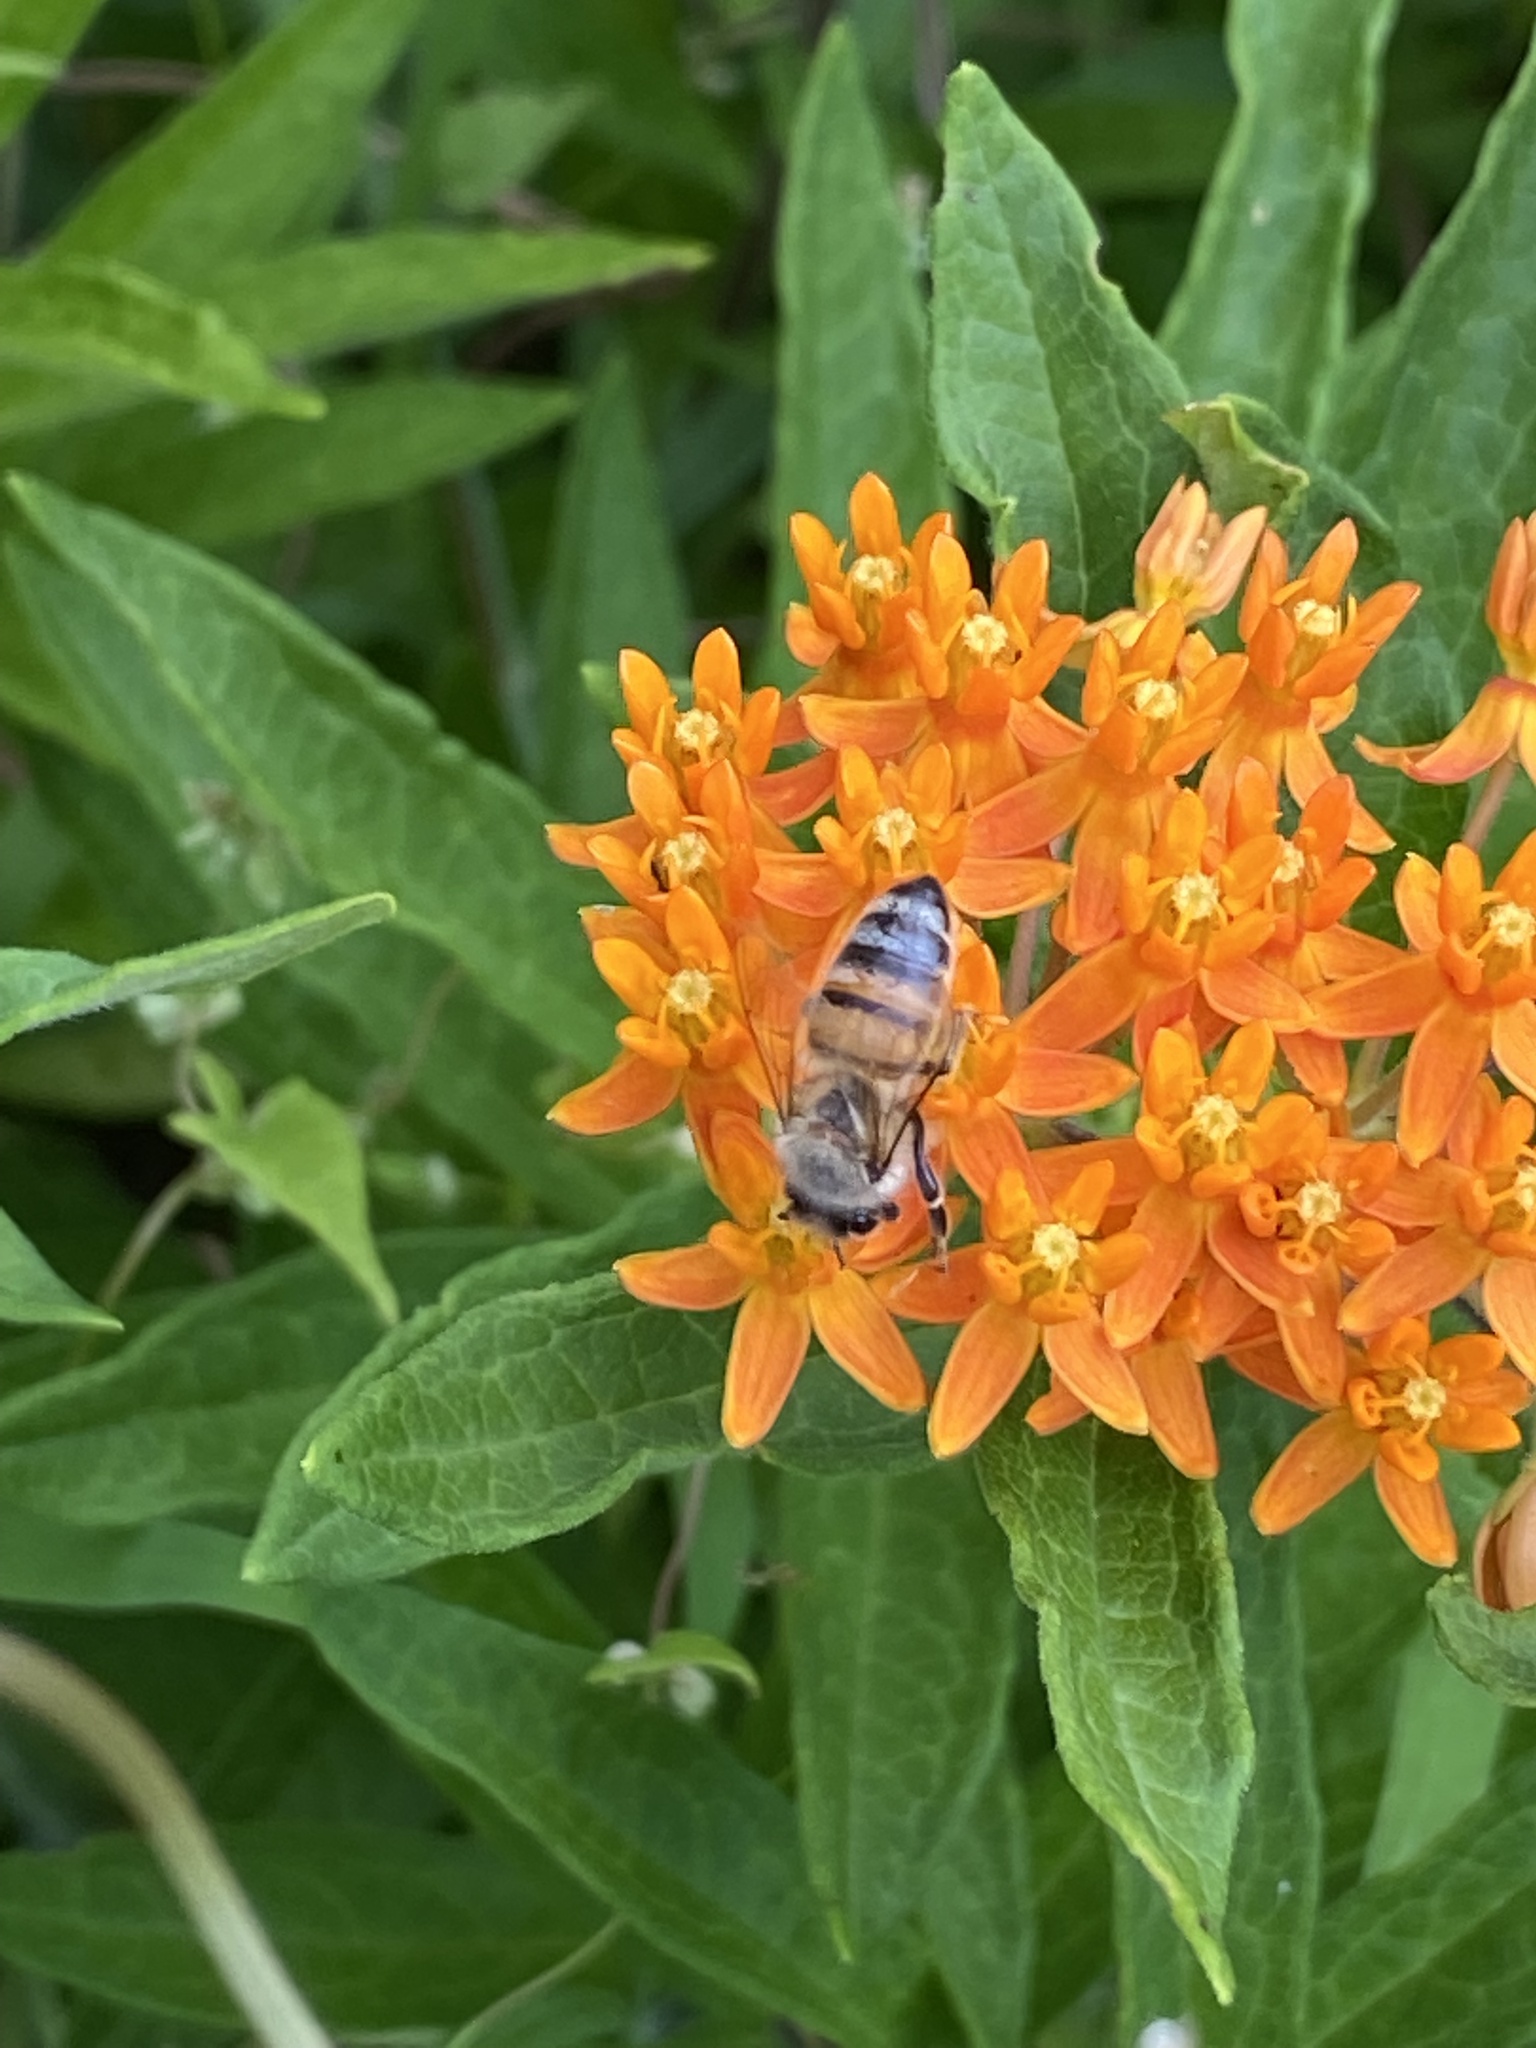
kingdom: Animalia
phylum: Arthropoda
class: Insecta
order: Hymenoptera
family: Apidae
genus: Apis
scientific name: Apis mellifera
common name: Honey bee
